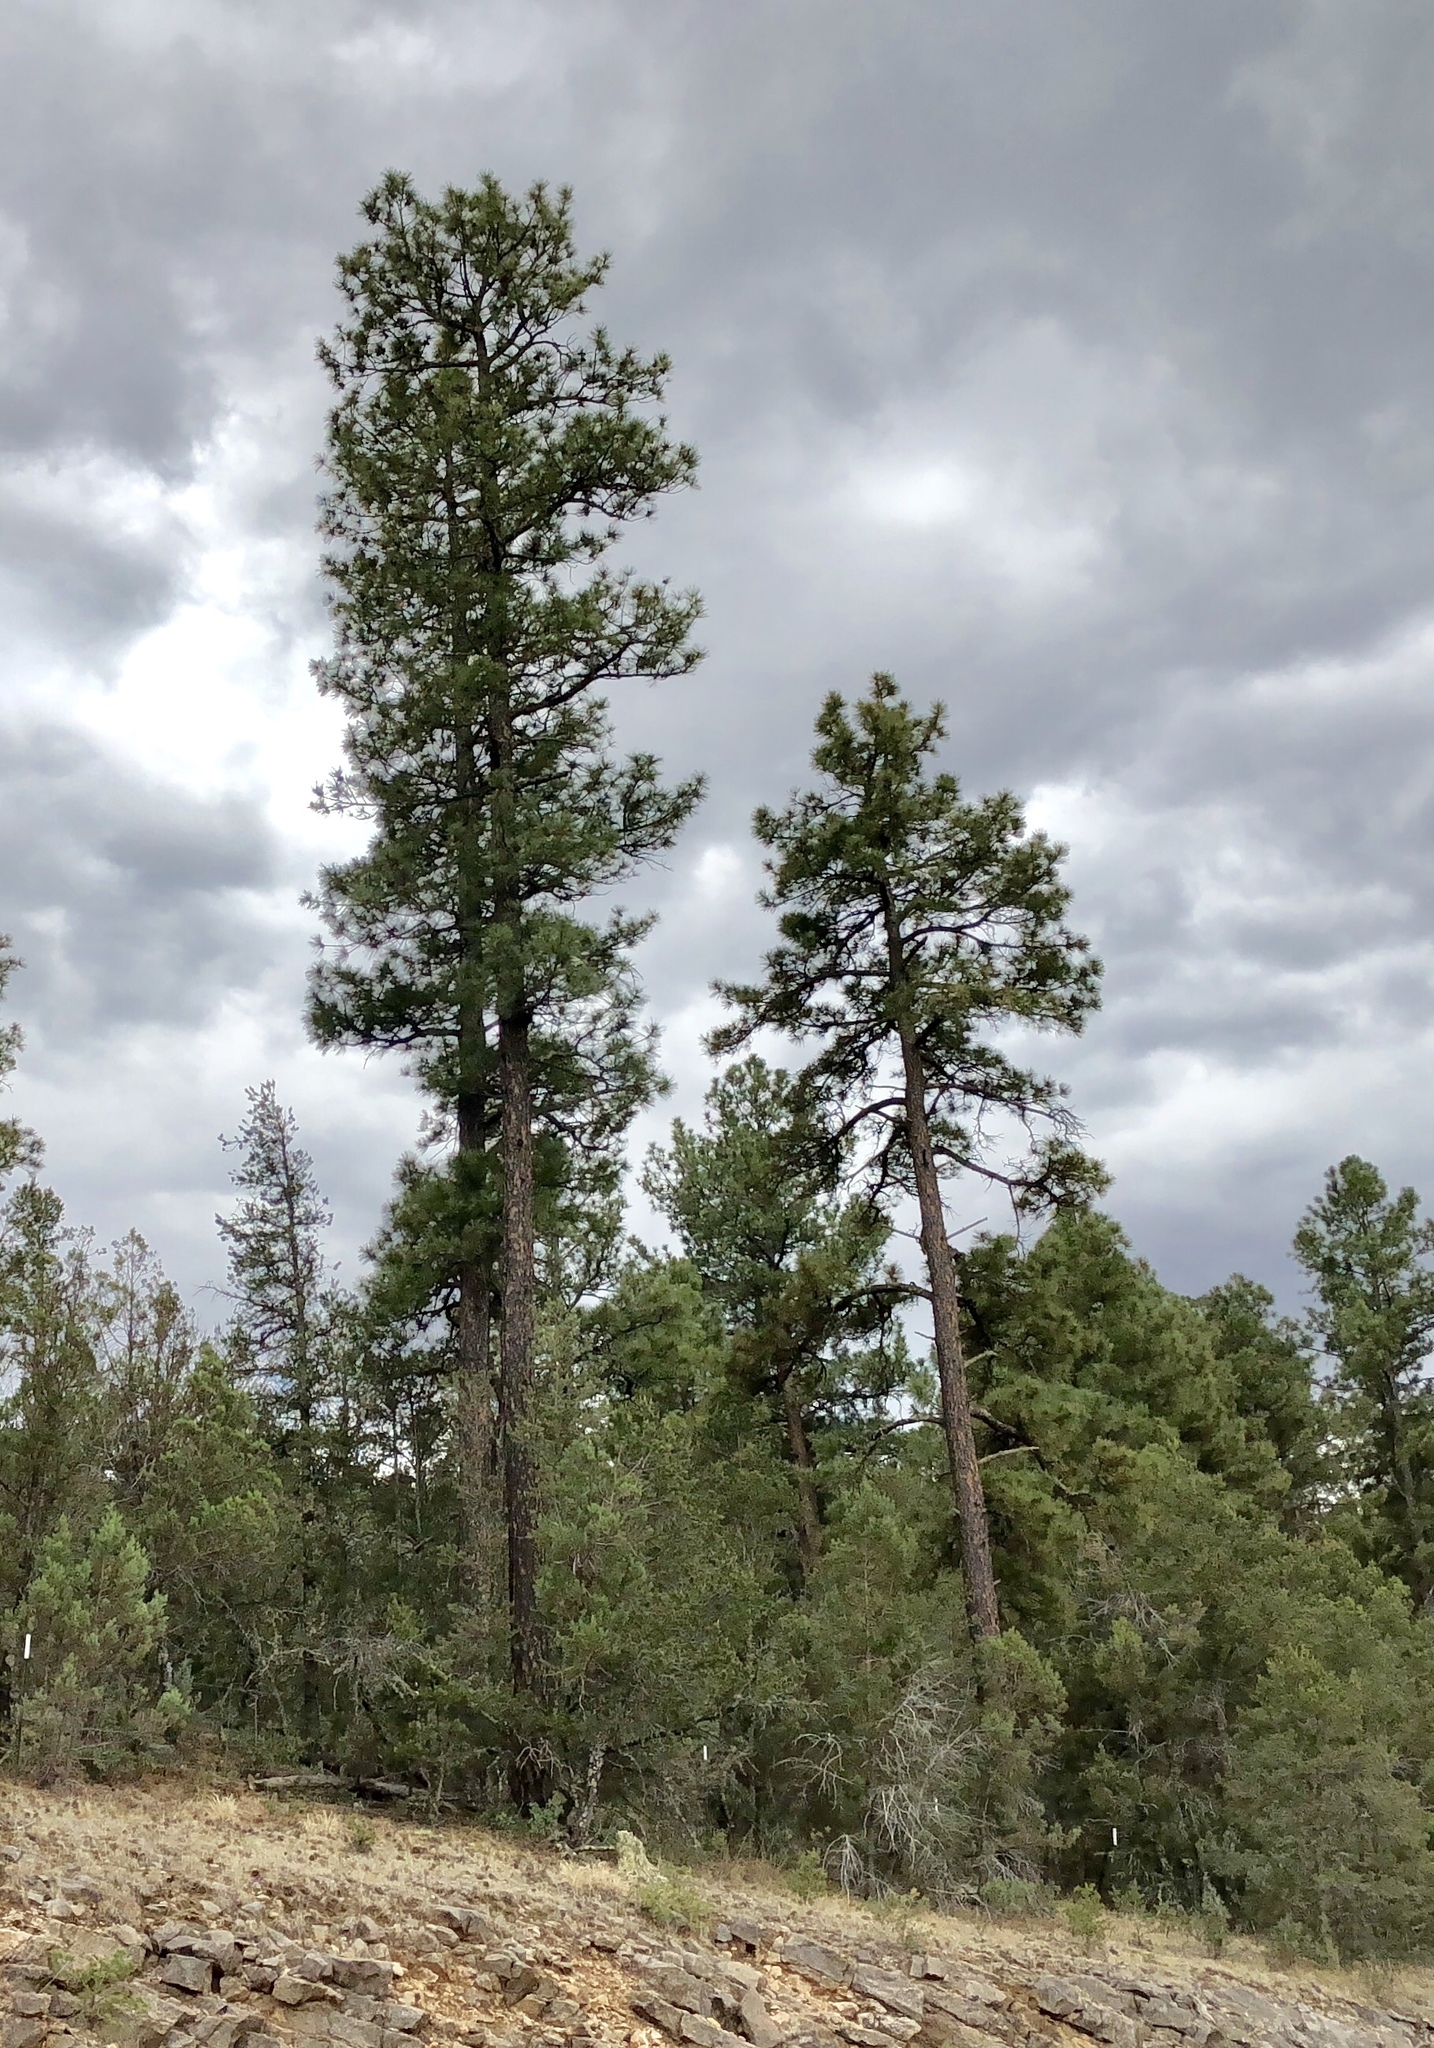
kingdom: Plantae
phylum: Tracheophyta
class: Pinopsida
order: Pinales
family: Pinaceae
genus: Pinus
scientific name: Pinus ponderosa
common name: Western yellow-pine
